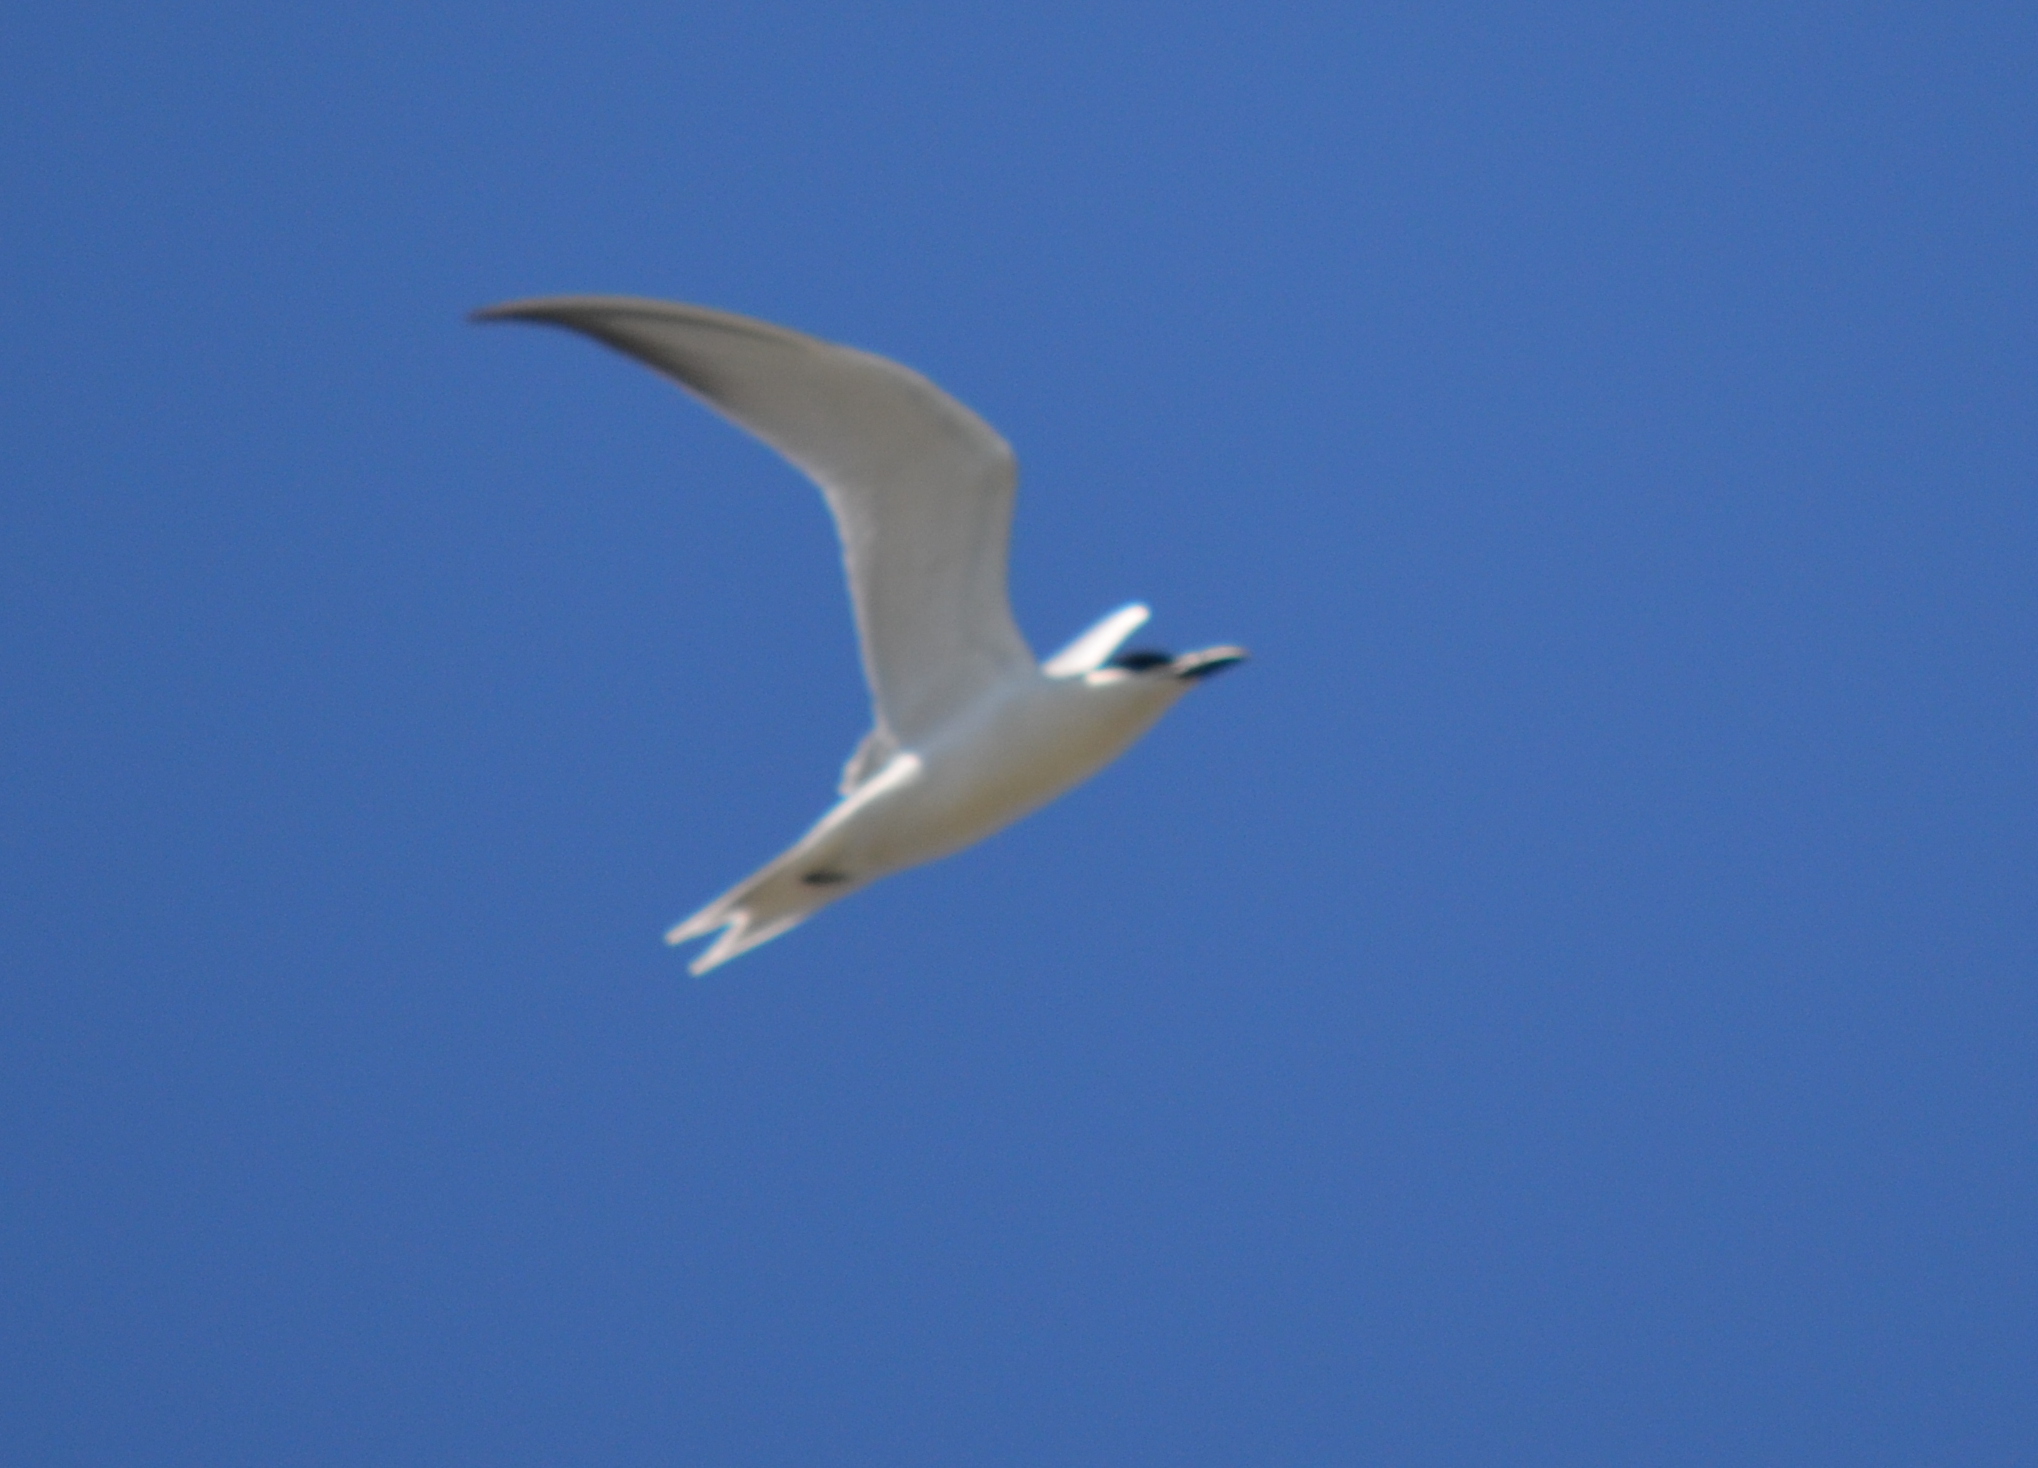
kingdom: Animalia
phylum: Chordata
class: Aves
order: Charadriiformes
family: Laridae
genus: Gelochelidon
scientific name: Gelochelidon nilotica
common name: Gull-billed tern
